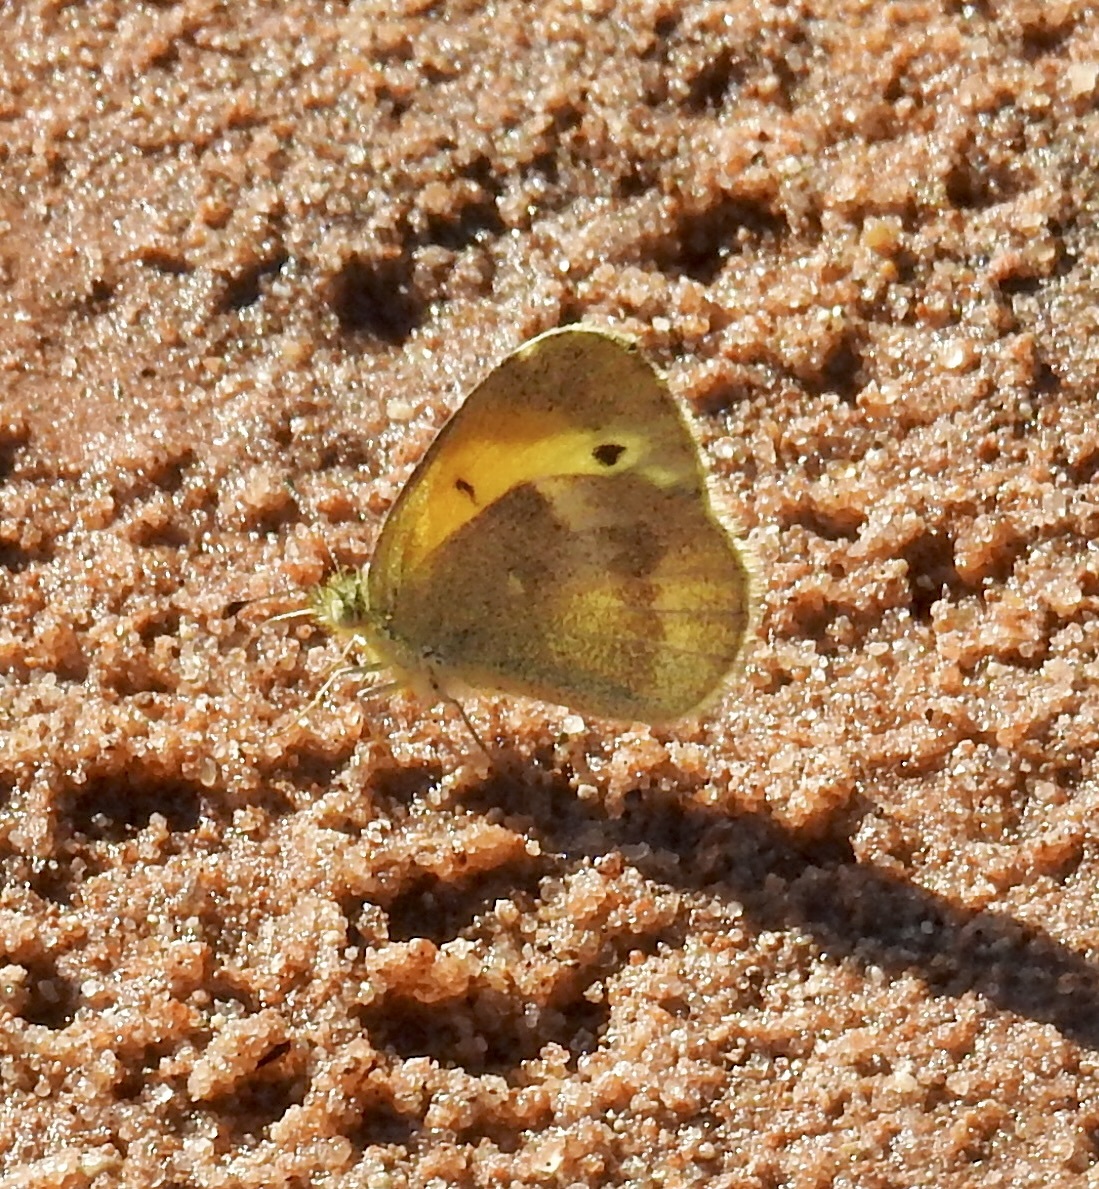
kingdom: Animalia
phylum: Arthropoda
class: Insecta
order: Lepidoptera
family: Pieridae
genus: Nathalis
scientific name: Nathalis iole
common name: Dainty sulphur
